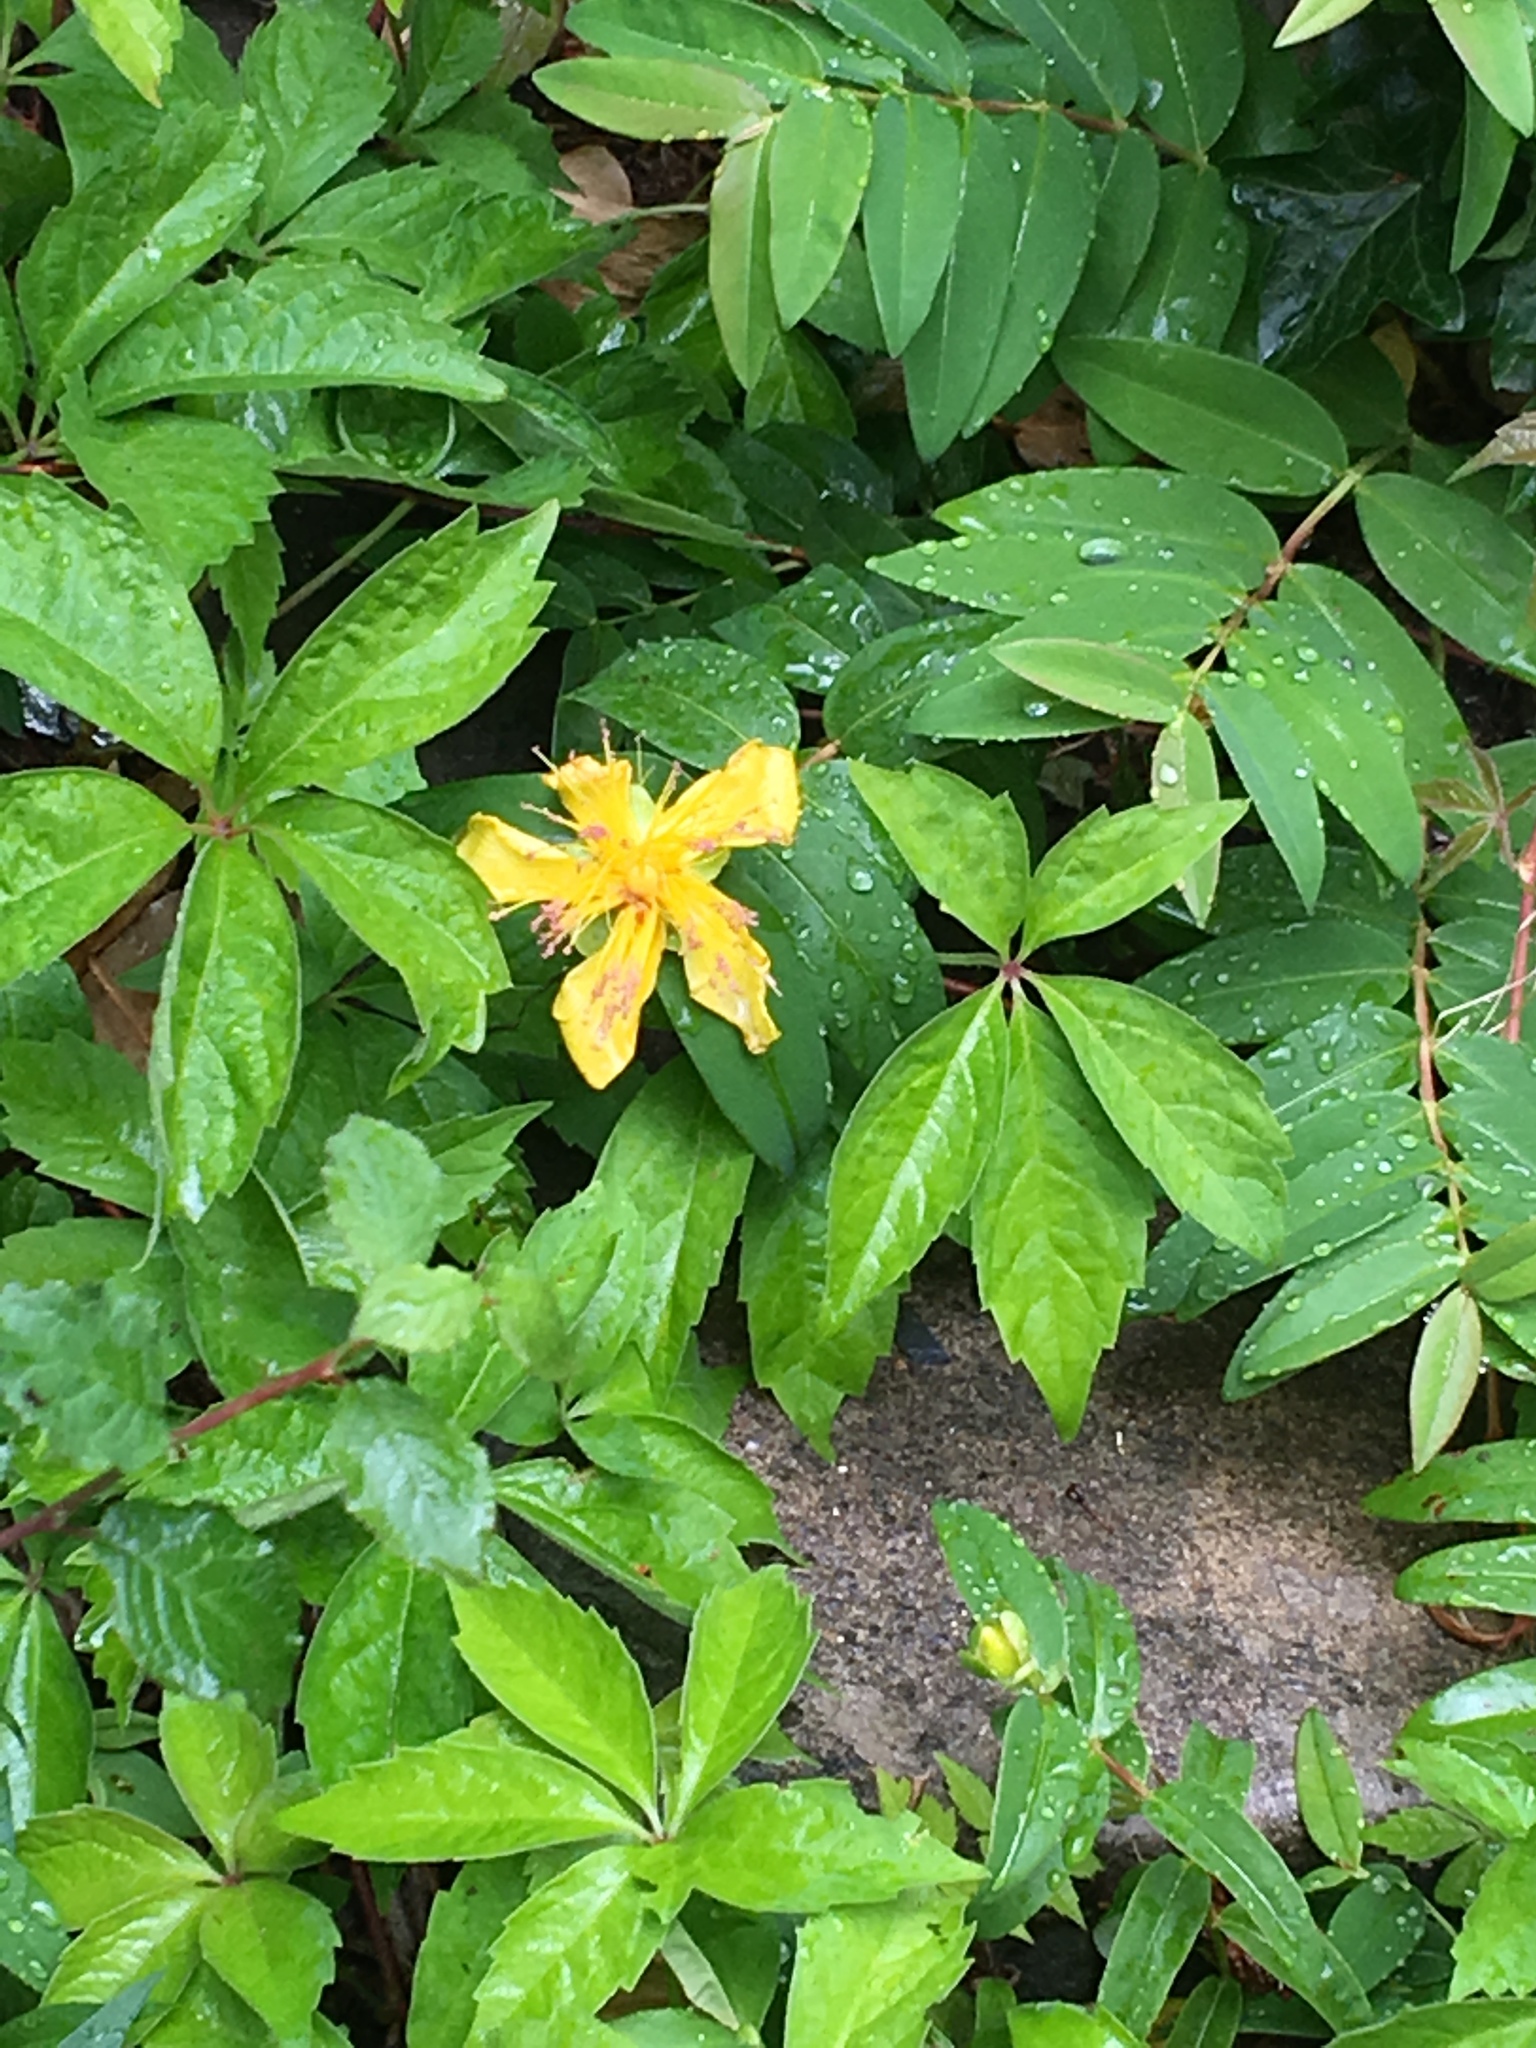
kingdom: Plantae
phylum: Tracheophyta
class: Magnoliopsida
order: Malpighiales
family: Hypericaceae
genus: Hypericum
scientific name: Hypericum calycinum
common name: Rose-of-sharon
